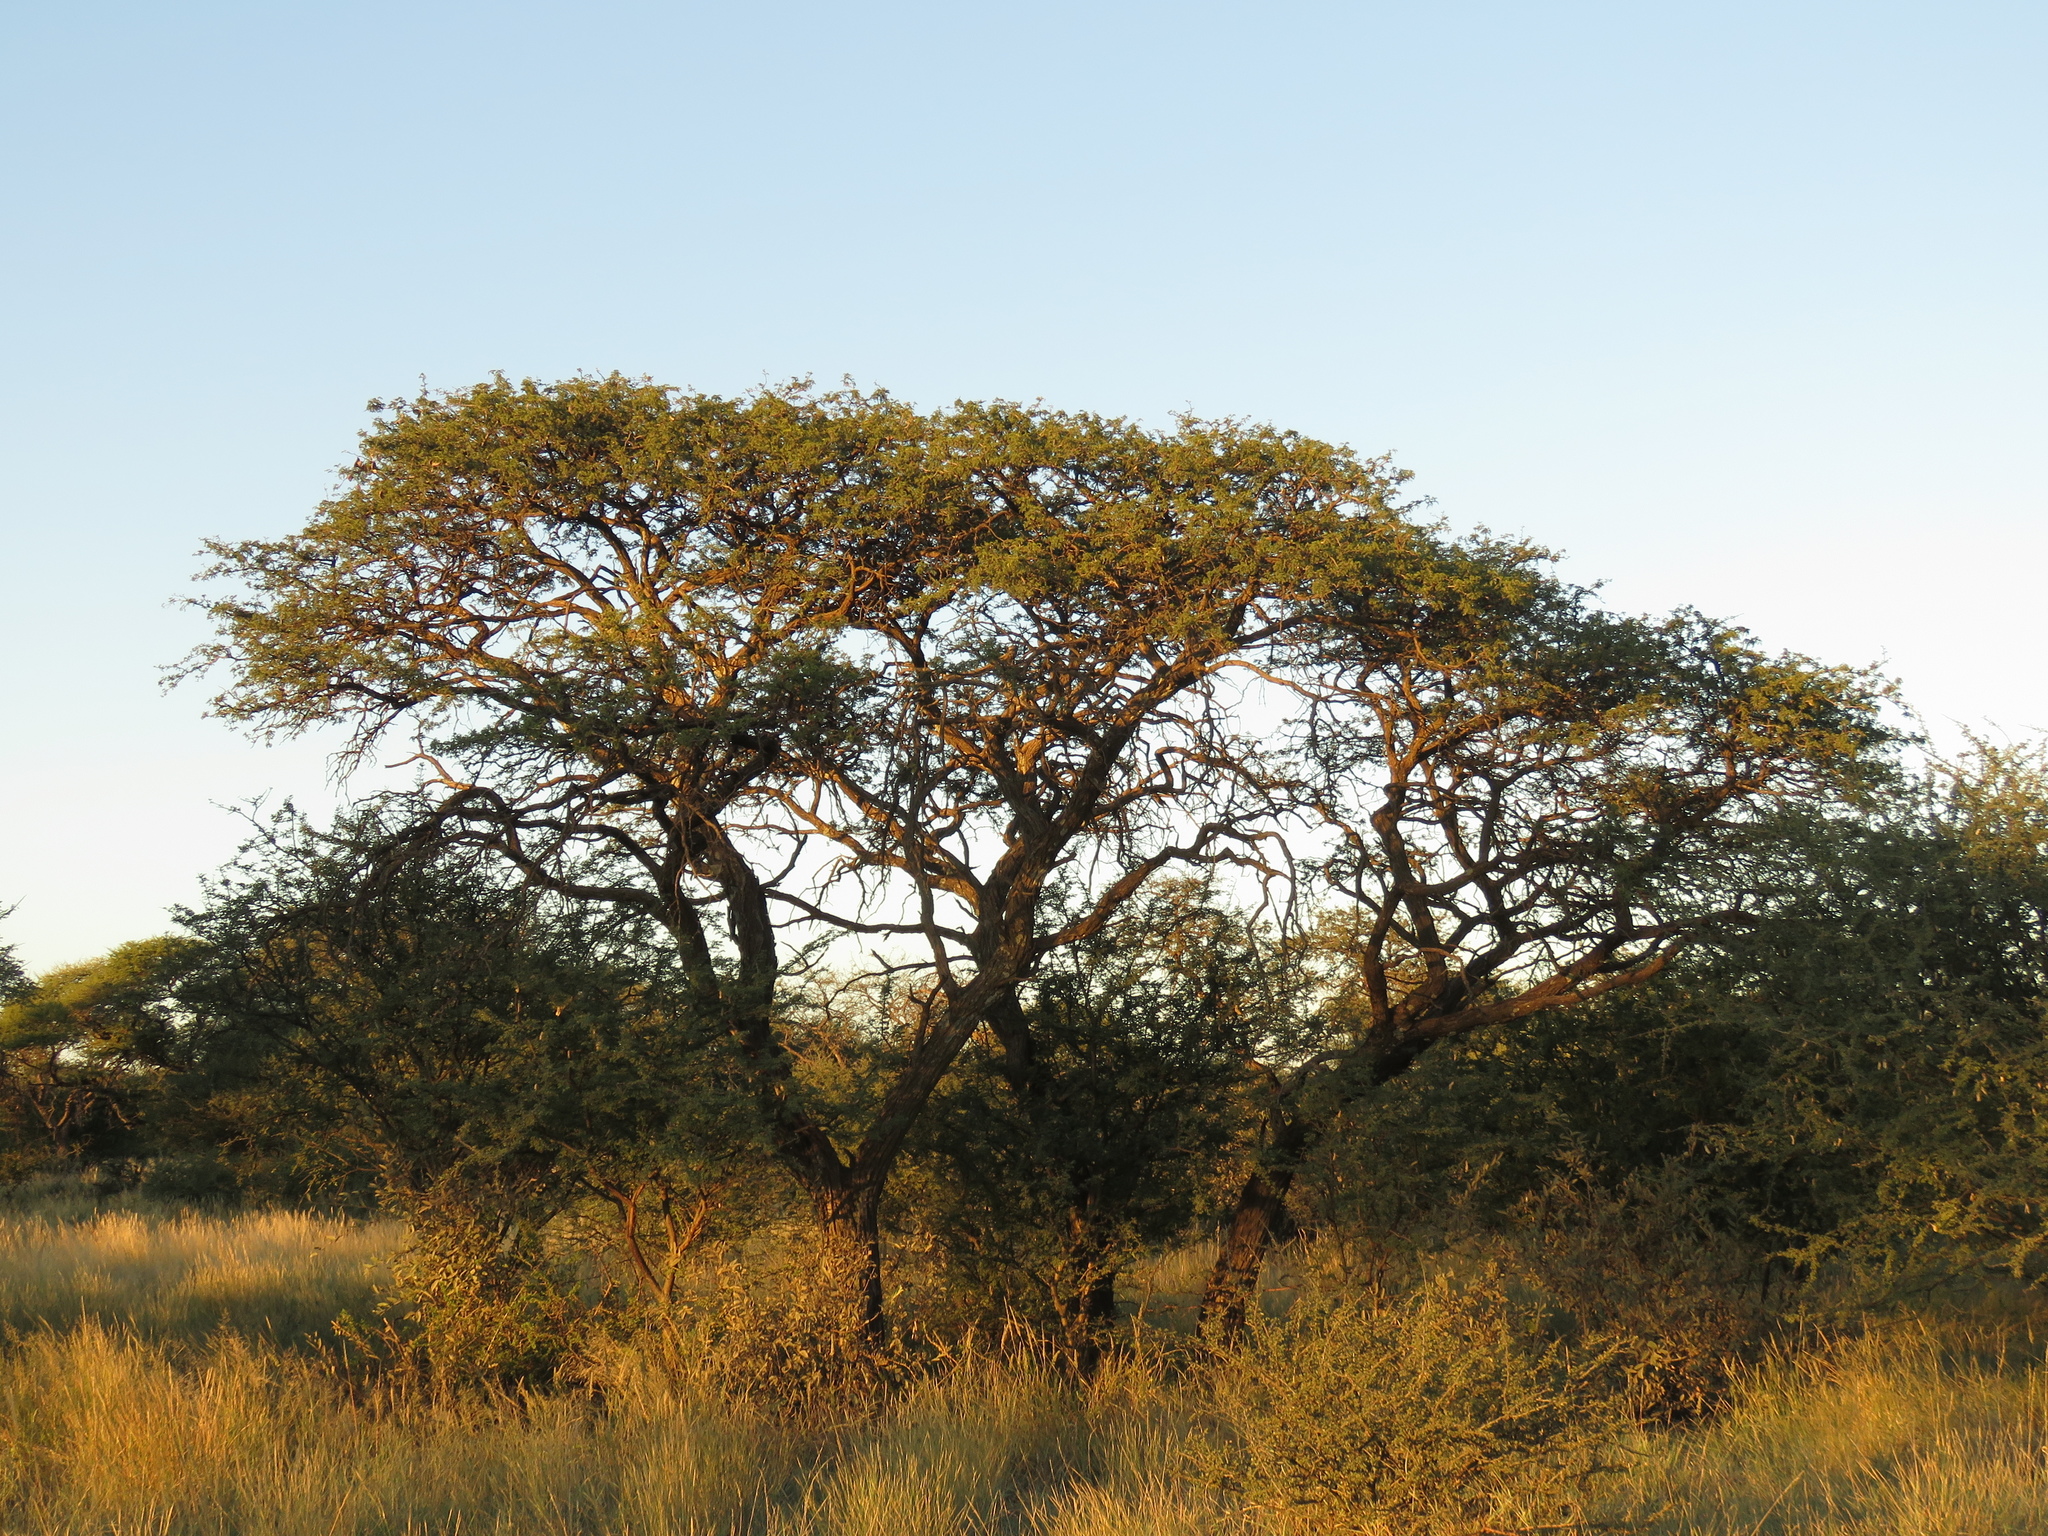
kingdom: Plantae
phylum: Tracheophyta
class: Magnoliopsida
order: Fabales
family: Fabaceae
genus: Vachellia
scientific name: Vachellia tortilis
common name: Umbrella thorn acacia
